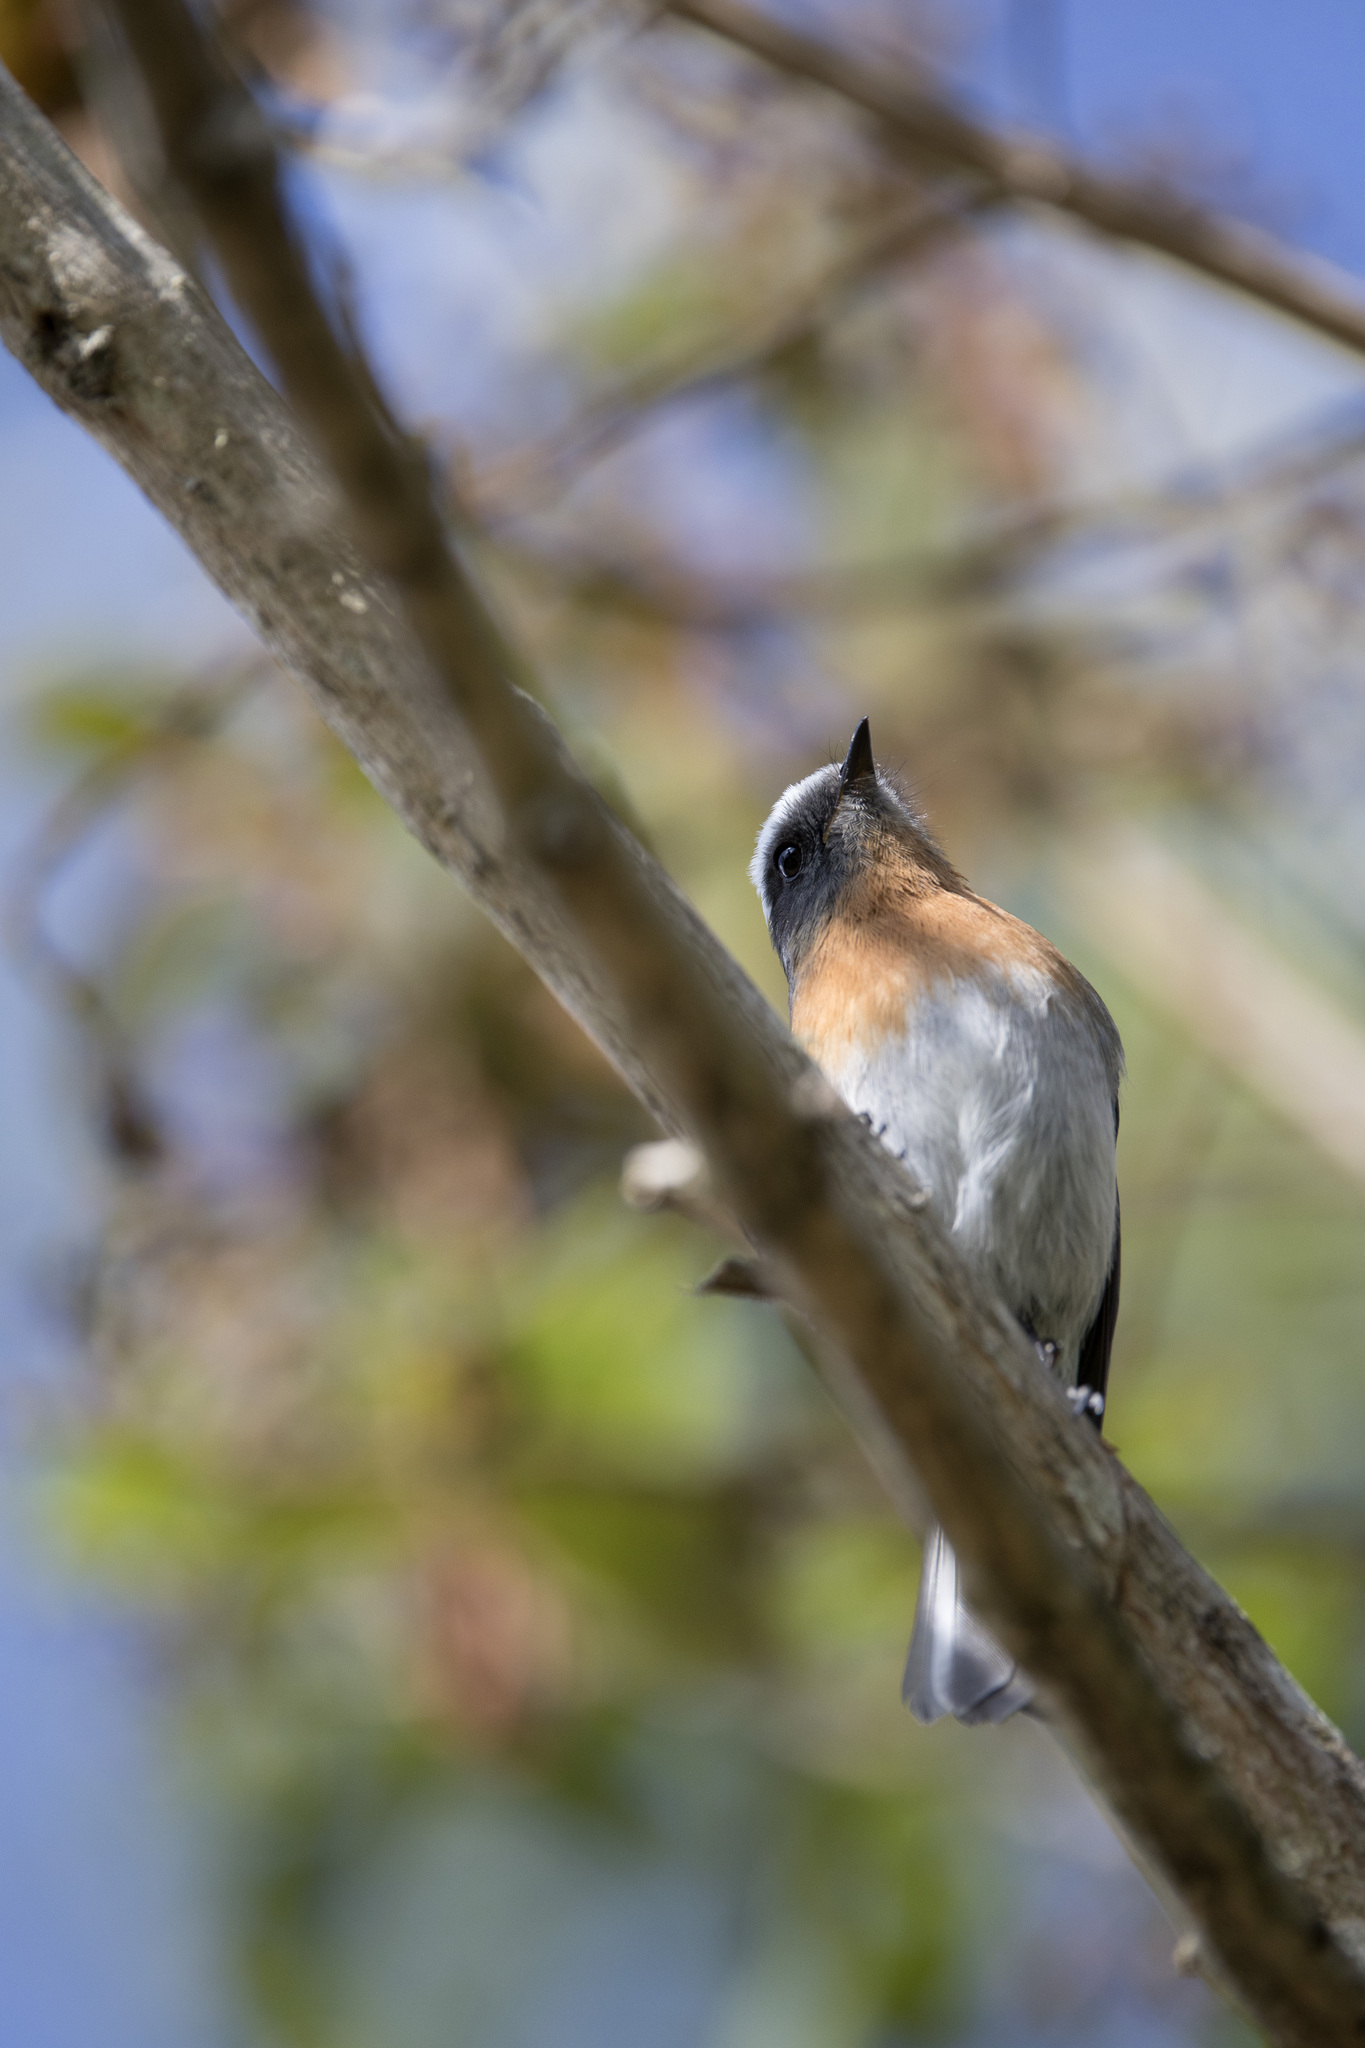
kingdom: Animalia
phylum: Chordata
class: Aves
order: Passeriformes
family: Tyrannidae
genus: Ochthoeca
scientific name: Ochthoeca rufipectoralis
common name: Rufous-breasted chat-tyrant
